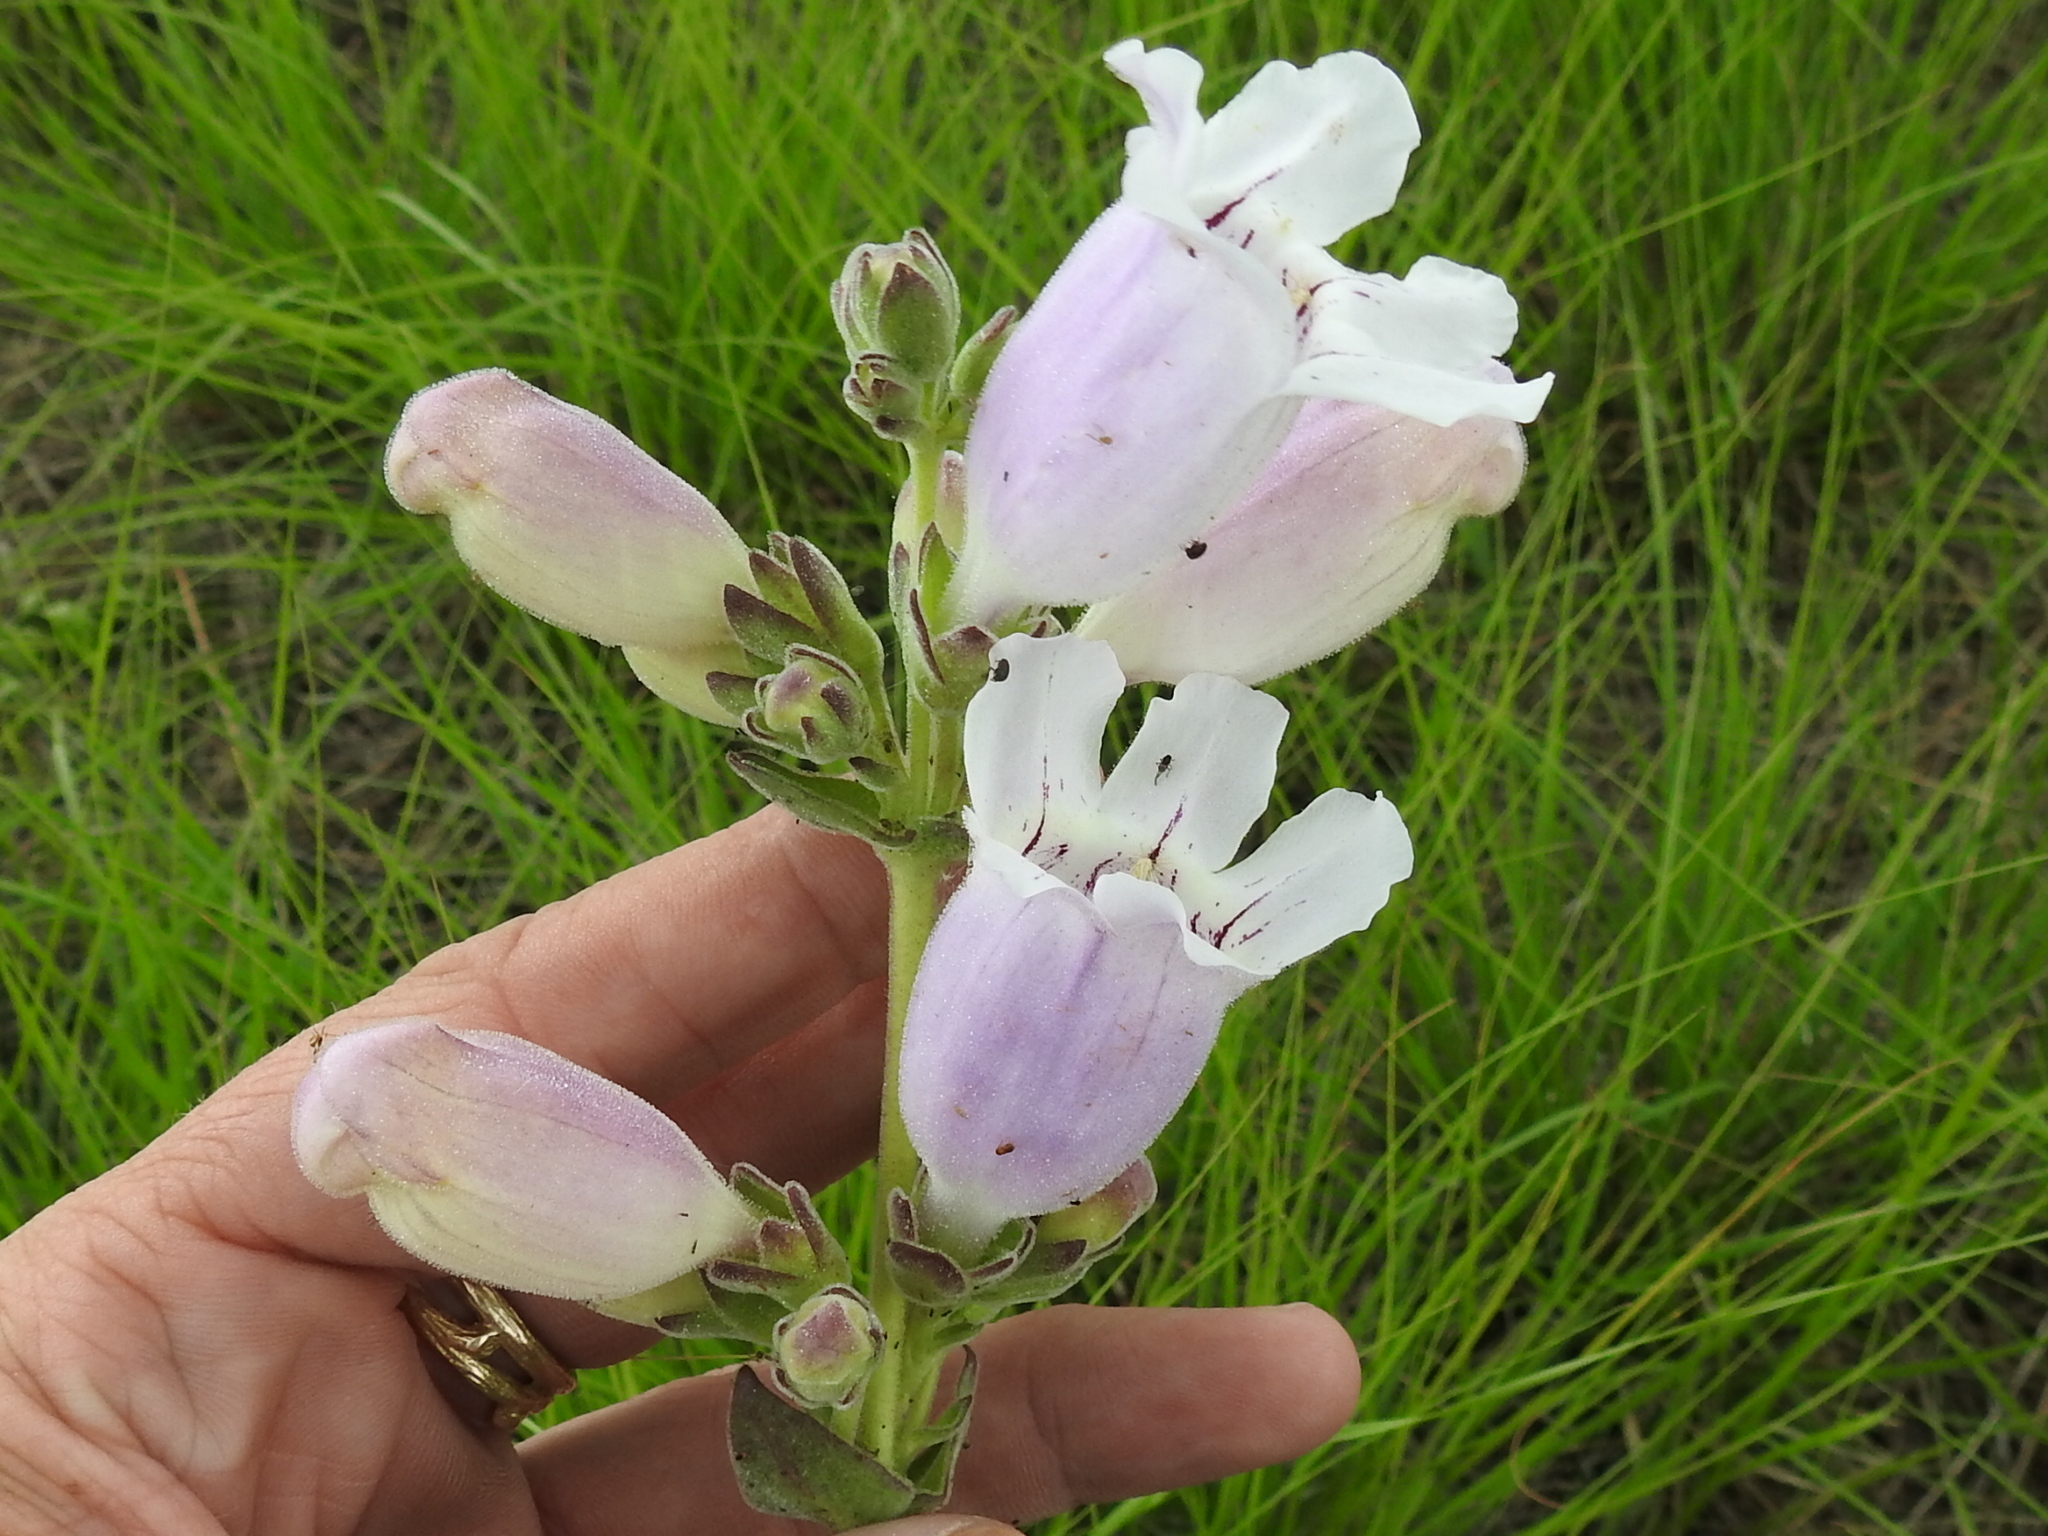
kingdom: Plantae
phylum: Tracheophyta
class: Magnoliopsida
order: Lamiales
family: Plantaginaceae
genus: Penstemon
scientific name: Penstemon cobaea
